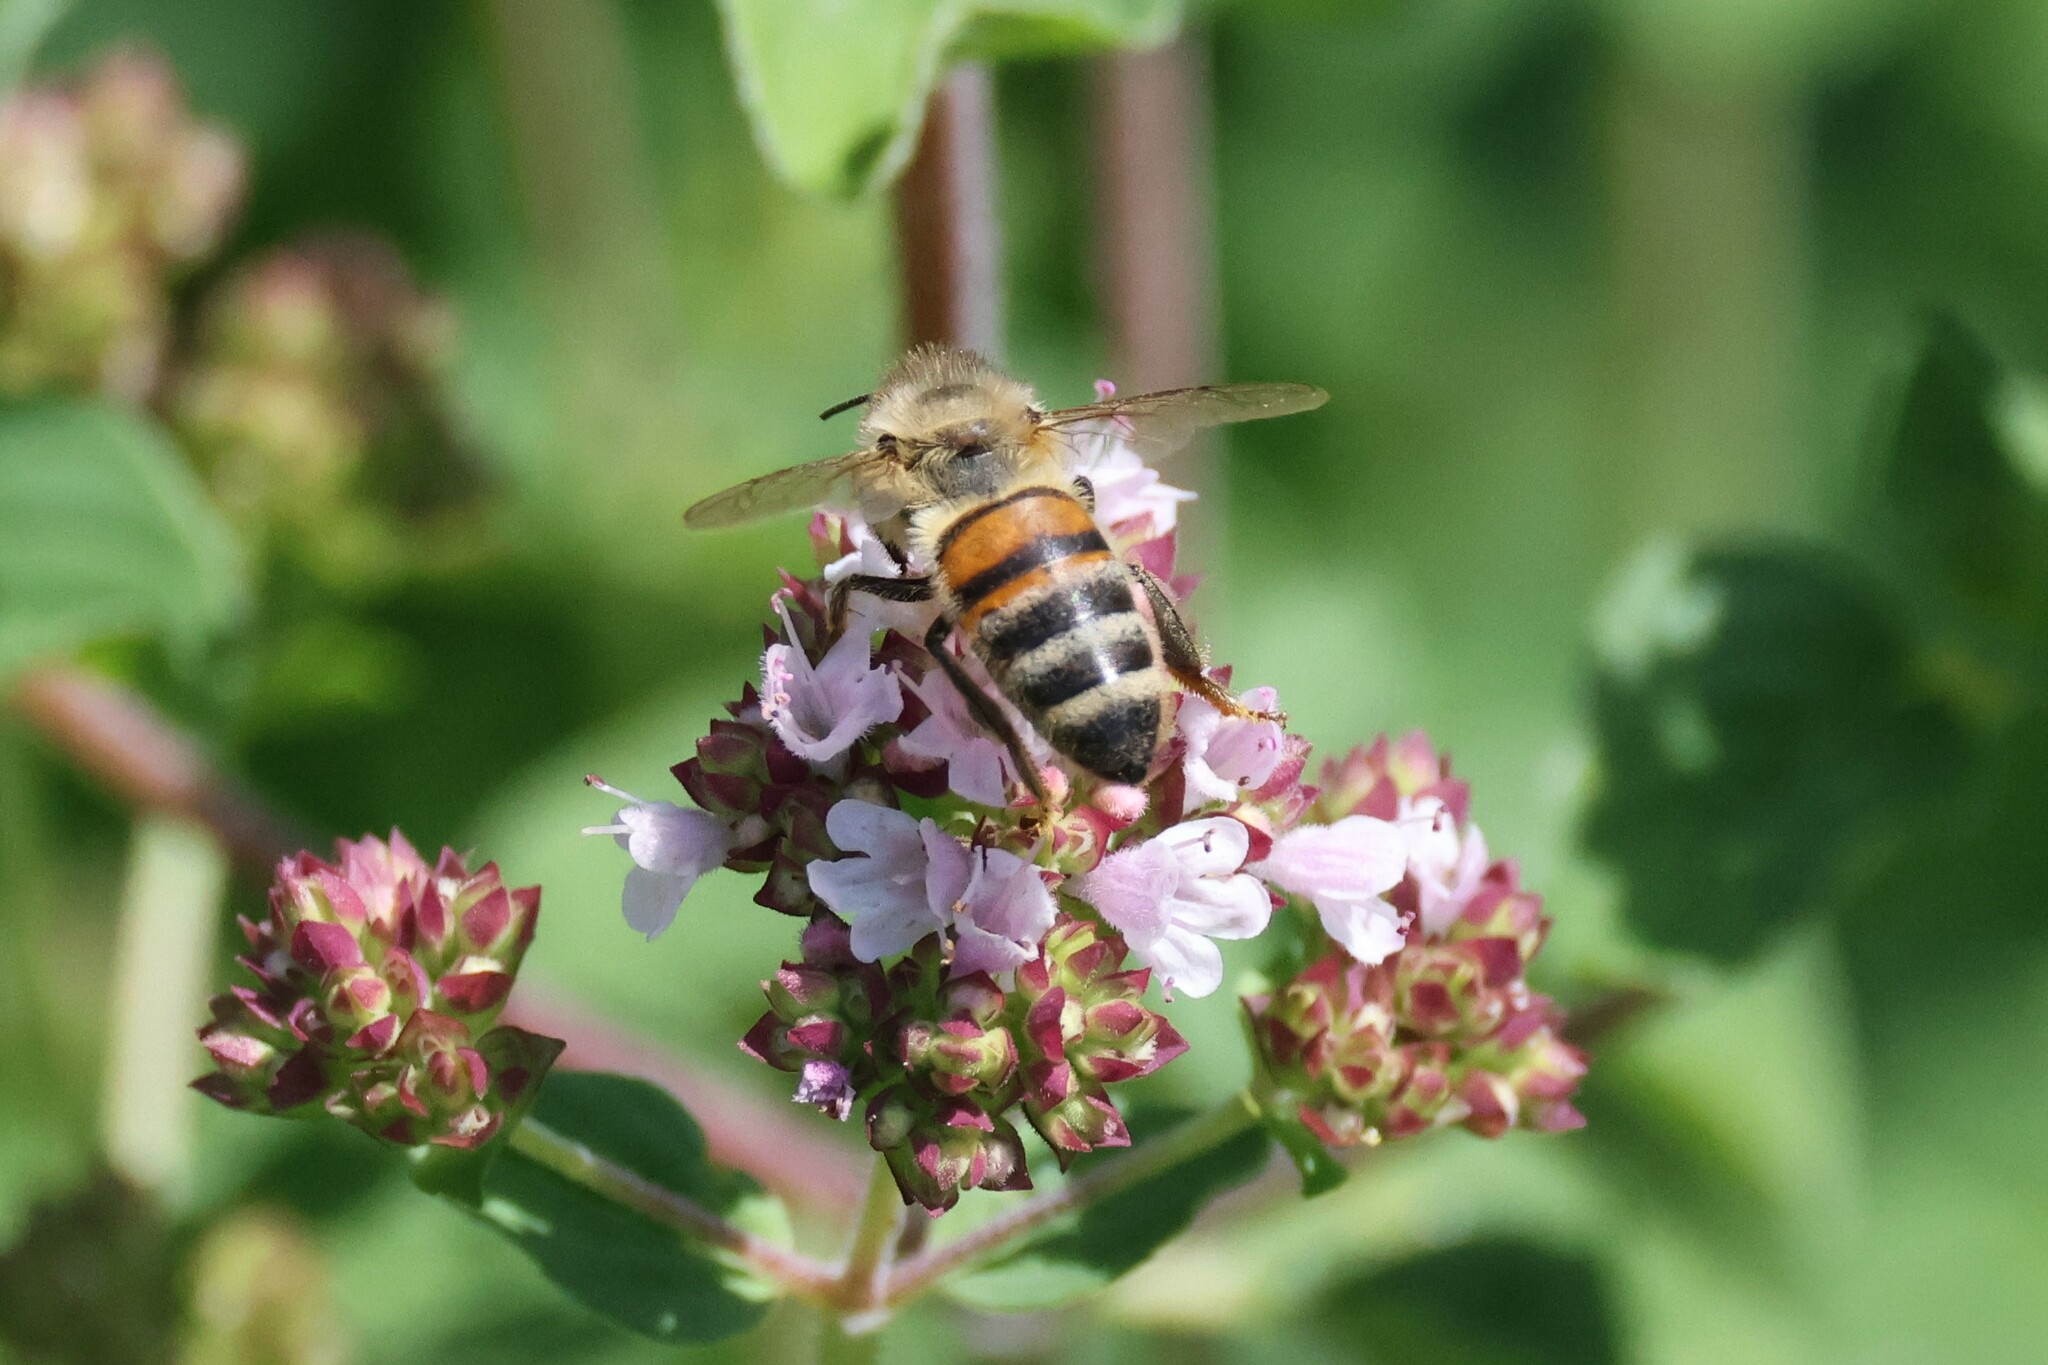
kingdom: Animalia
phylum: Arthropoda
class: Insecta
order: Hymenoptera
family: Apidae
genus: Apis
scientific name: Apis mellifera
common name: Honey bee
